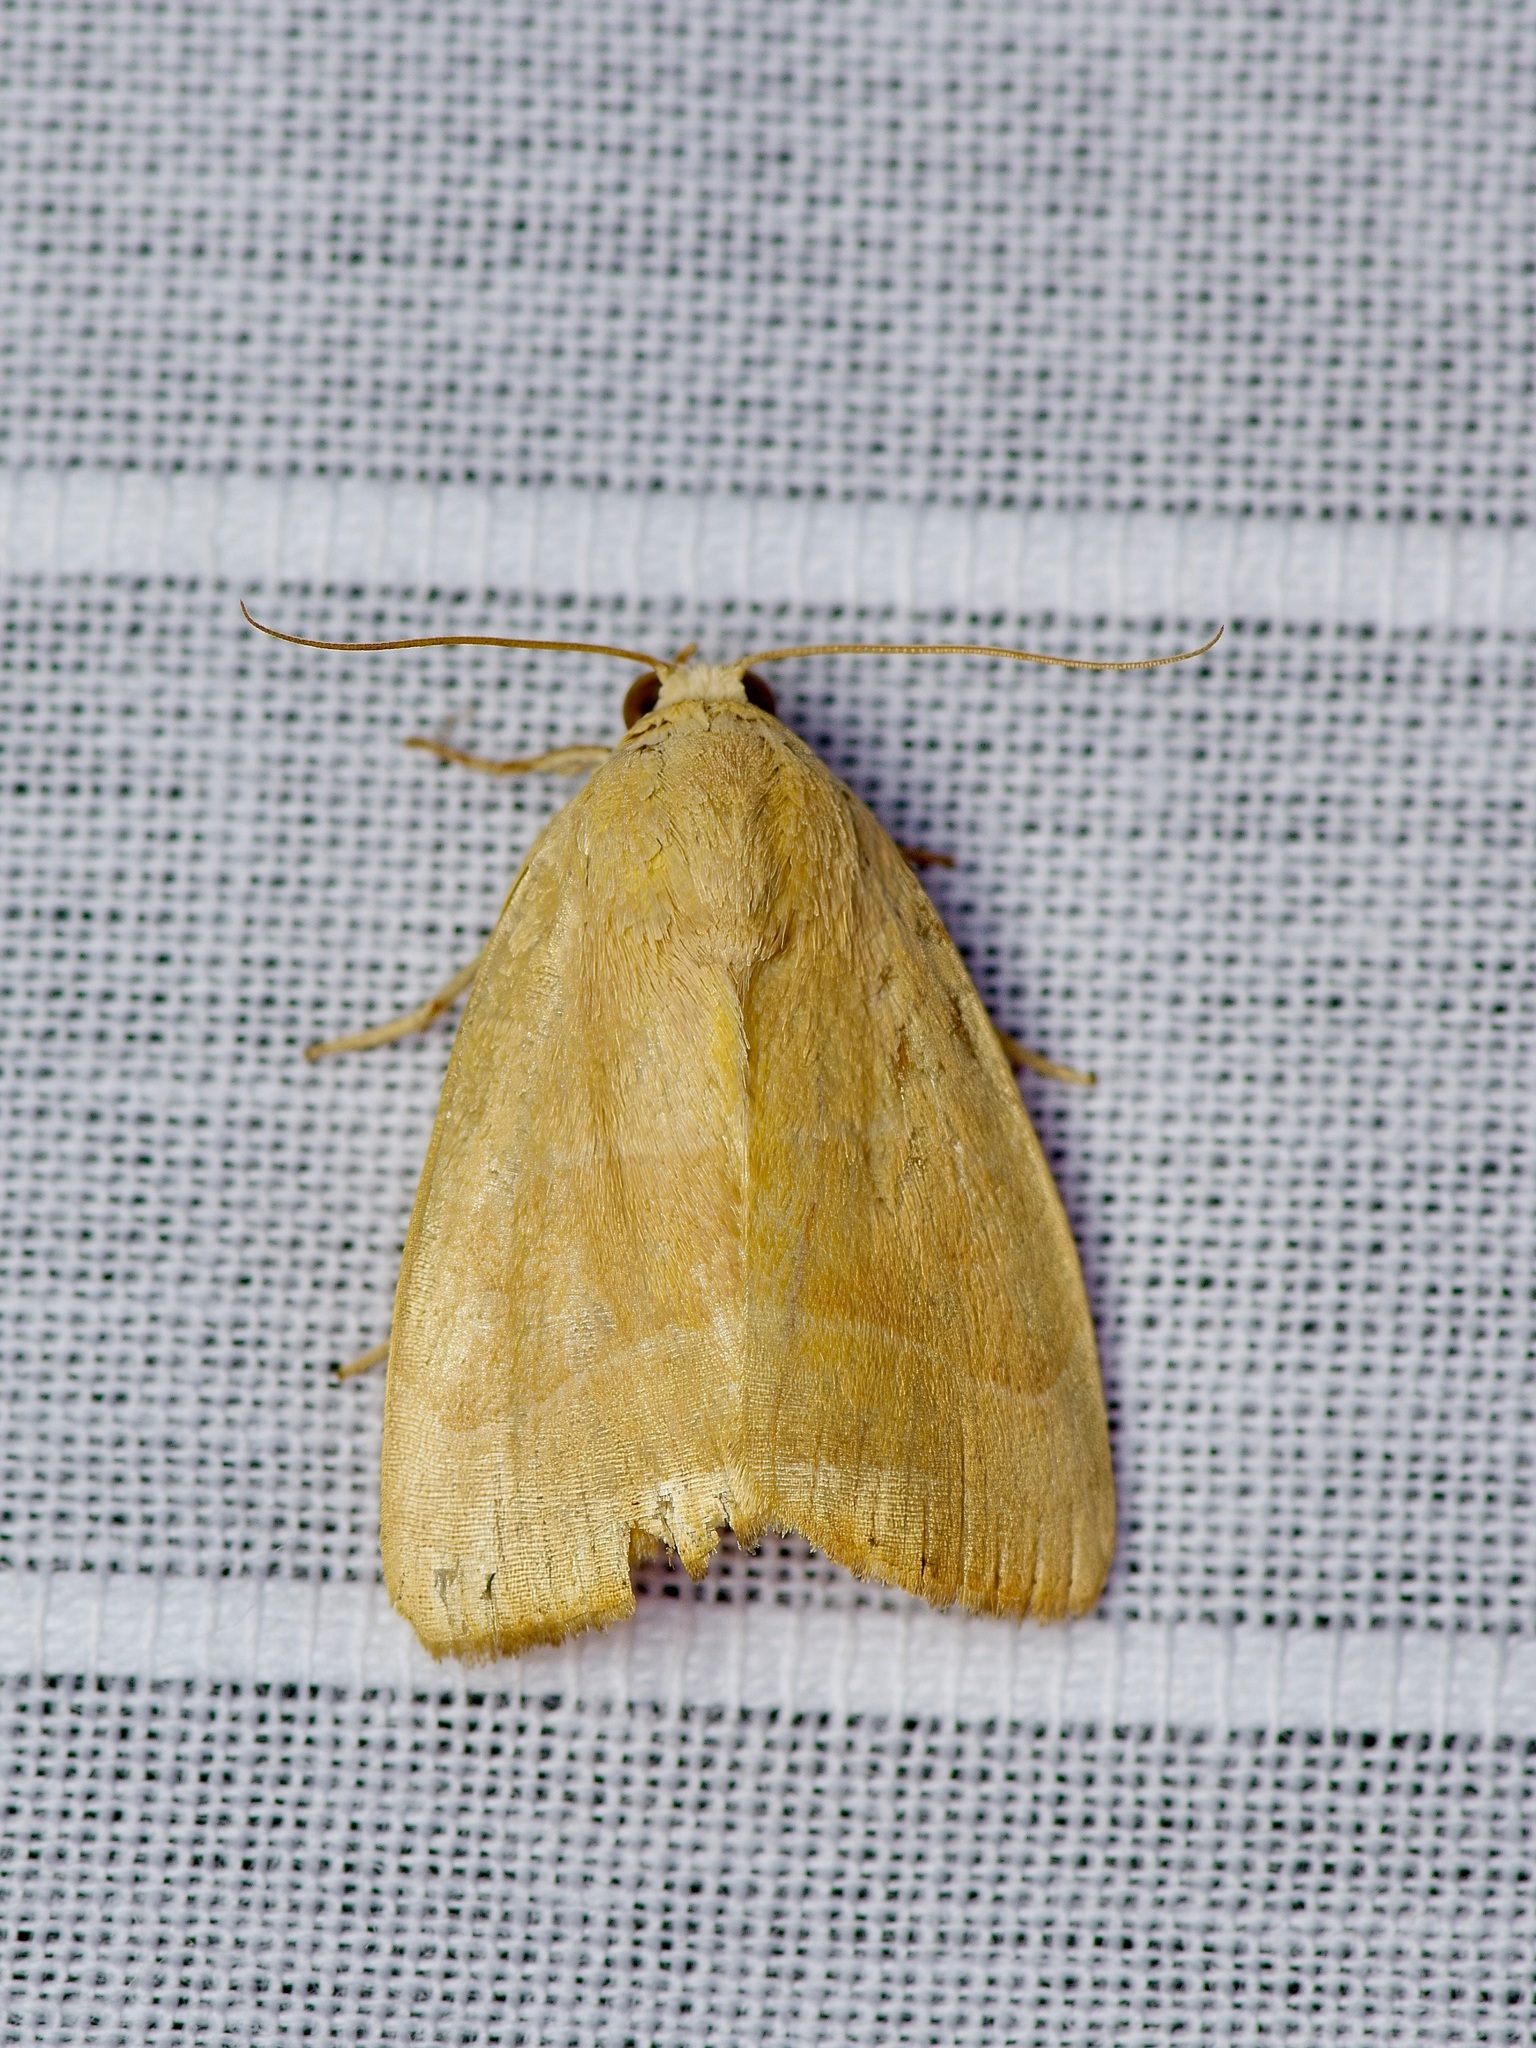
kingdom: Animalia
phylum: Arthropoda
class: Insecta
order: Lepidoptera
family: Noctuidae
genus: Bagisara
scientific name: Bagisara rectifascia
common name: Straight lined mallow moth
